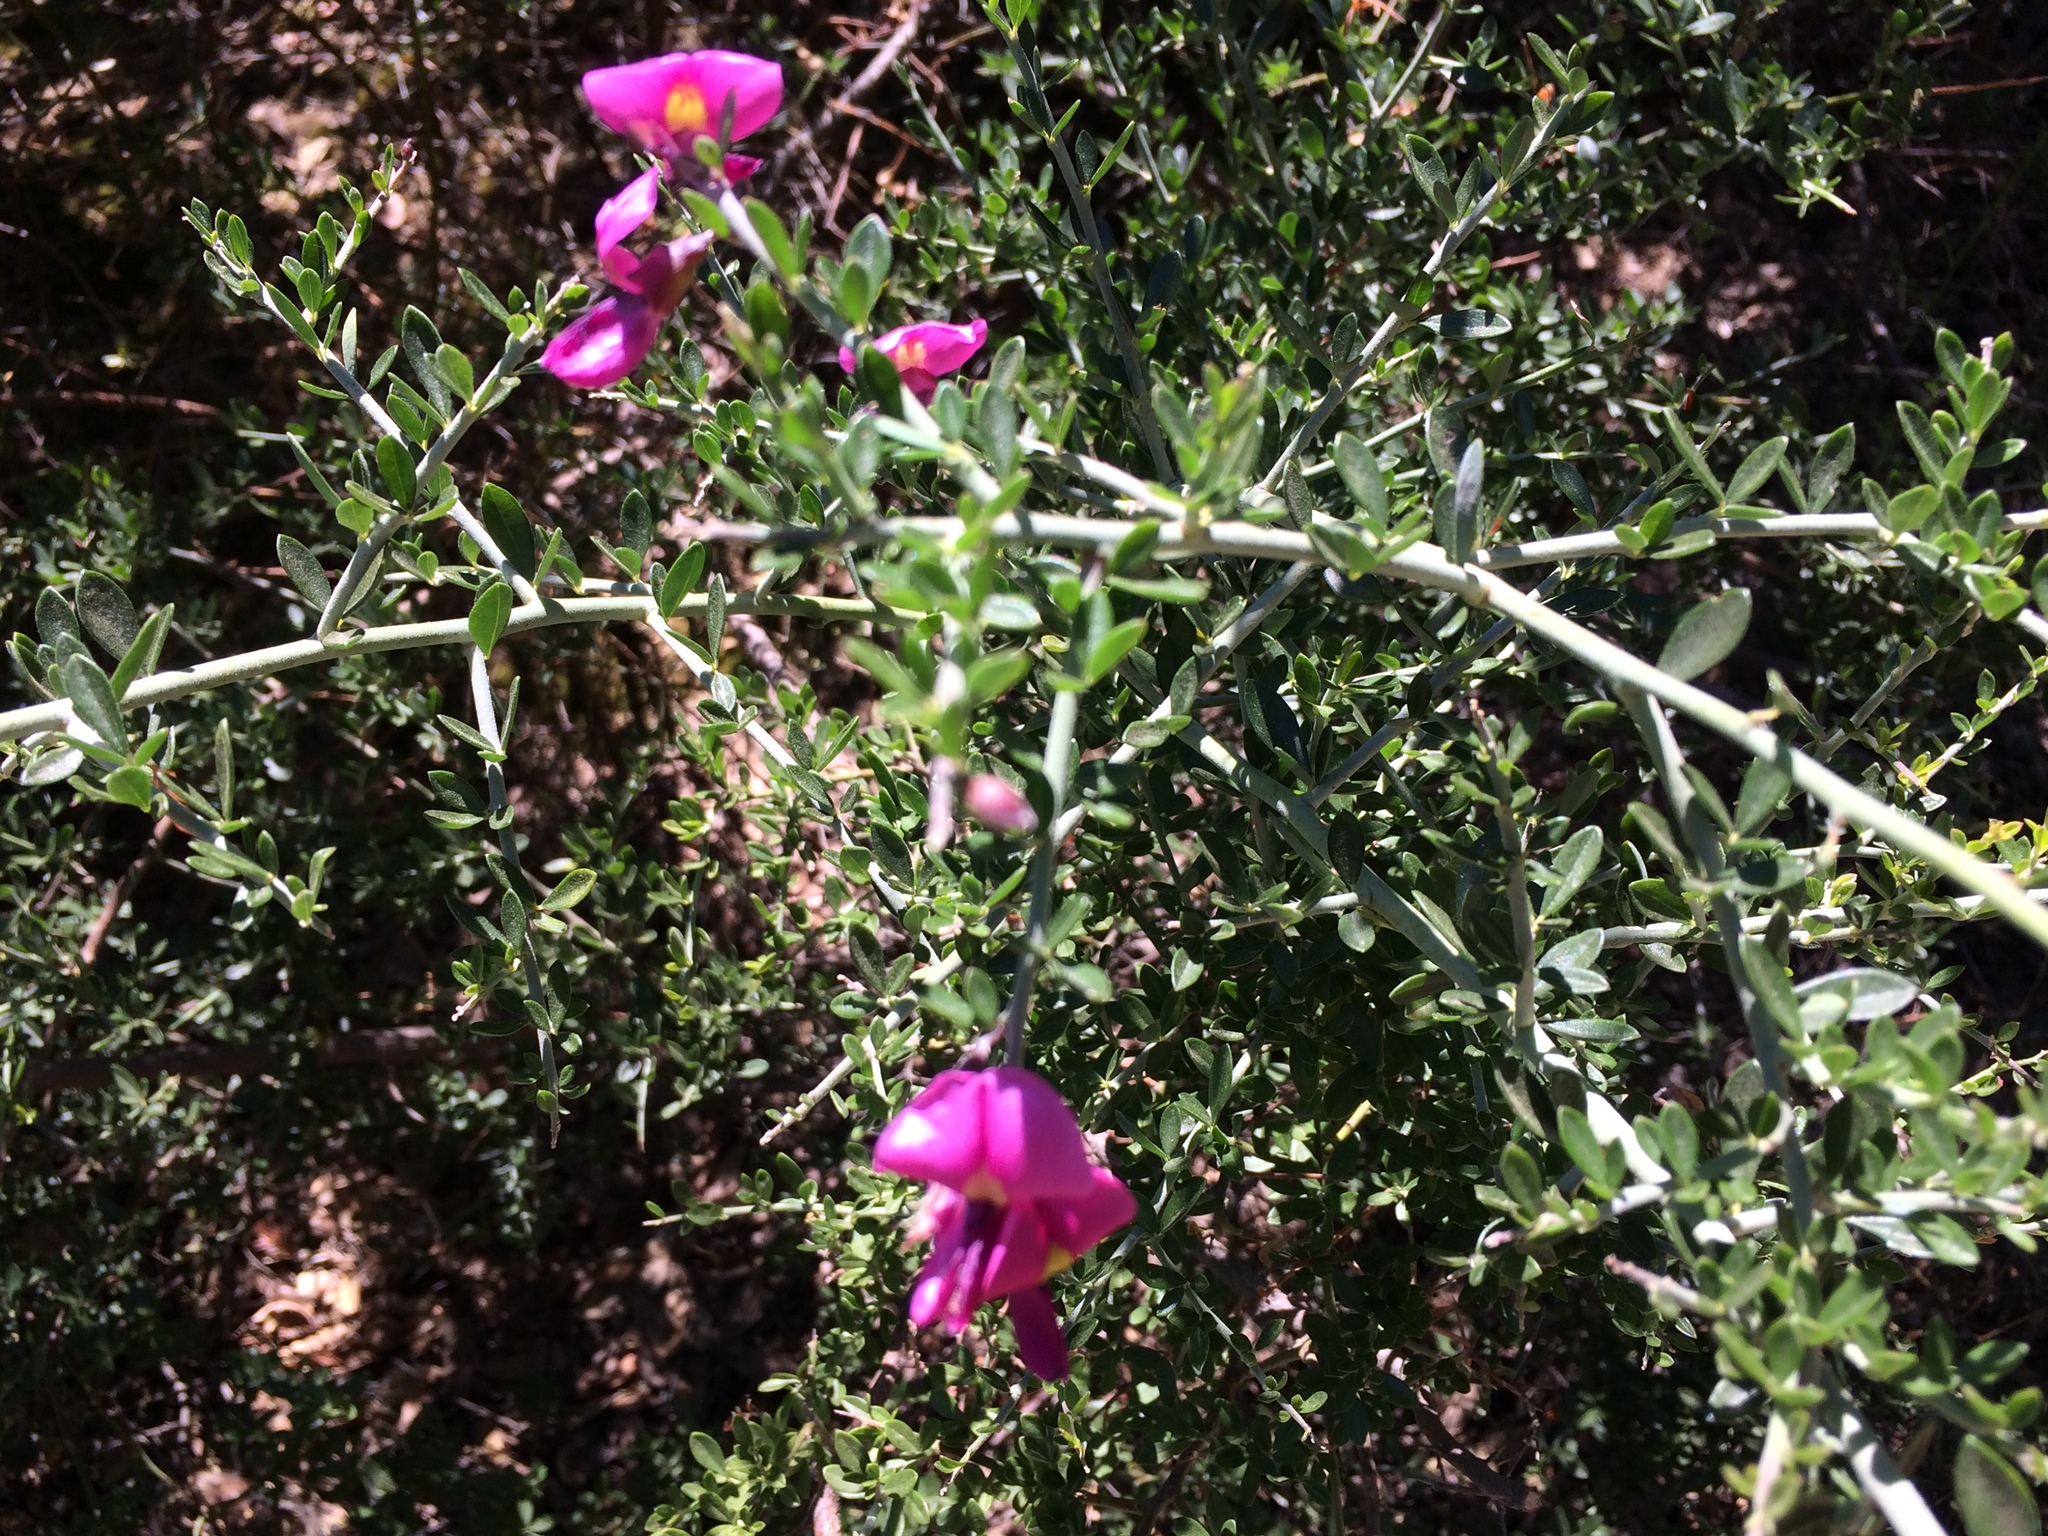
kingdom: Plantae
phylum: Tracheophyta
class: Magnoliopsida
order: Fabales
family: Fabaceae
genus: Pickeringia
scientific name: Pickeringia montana
